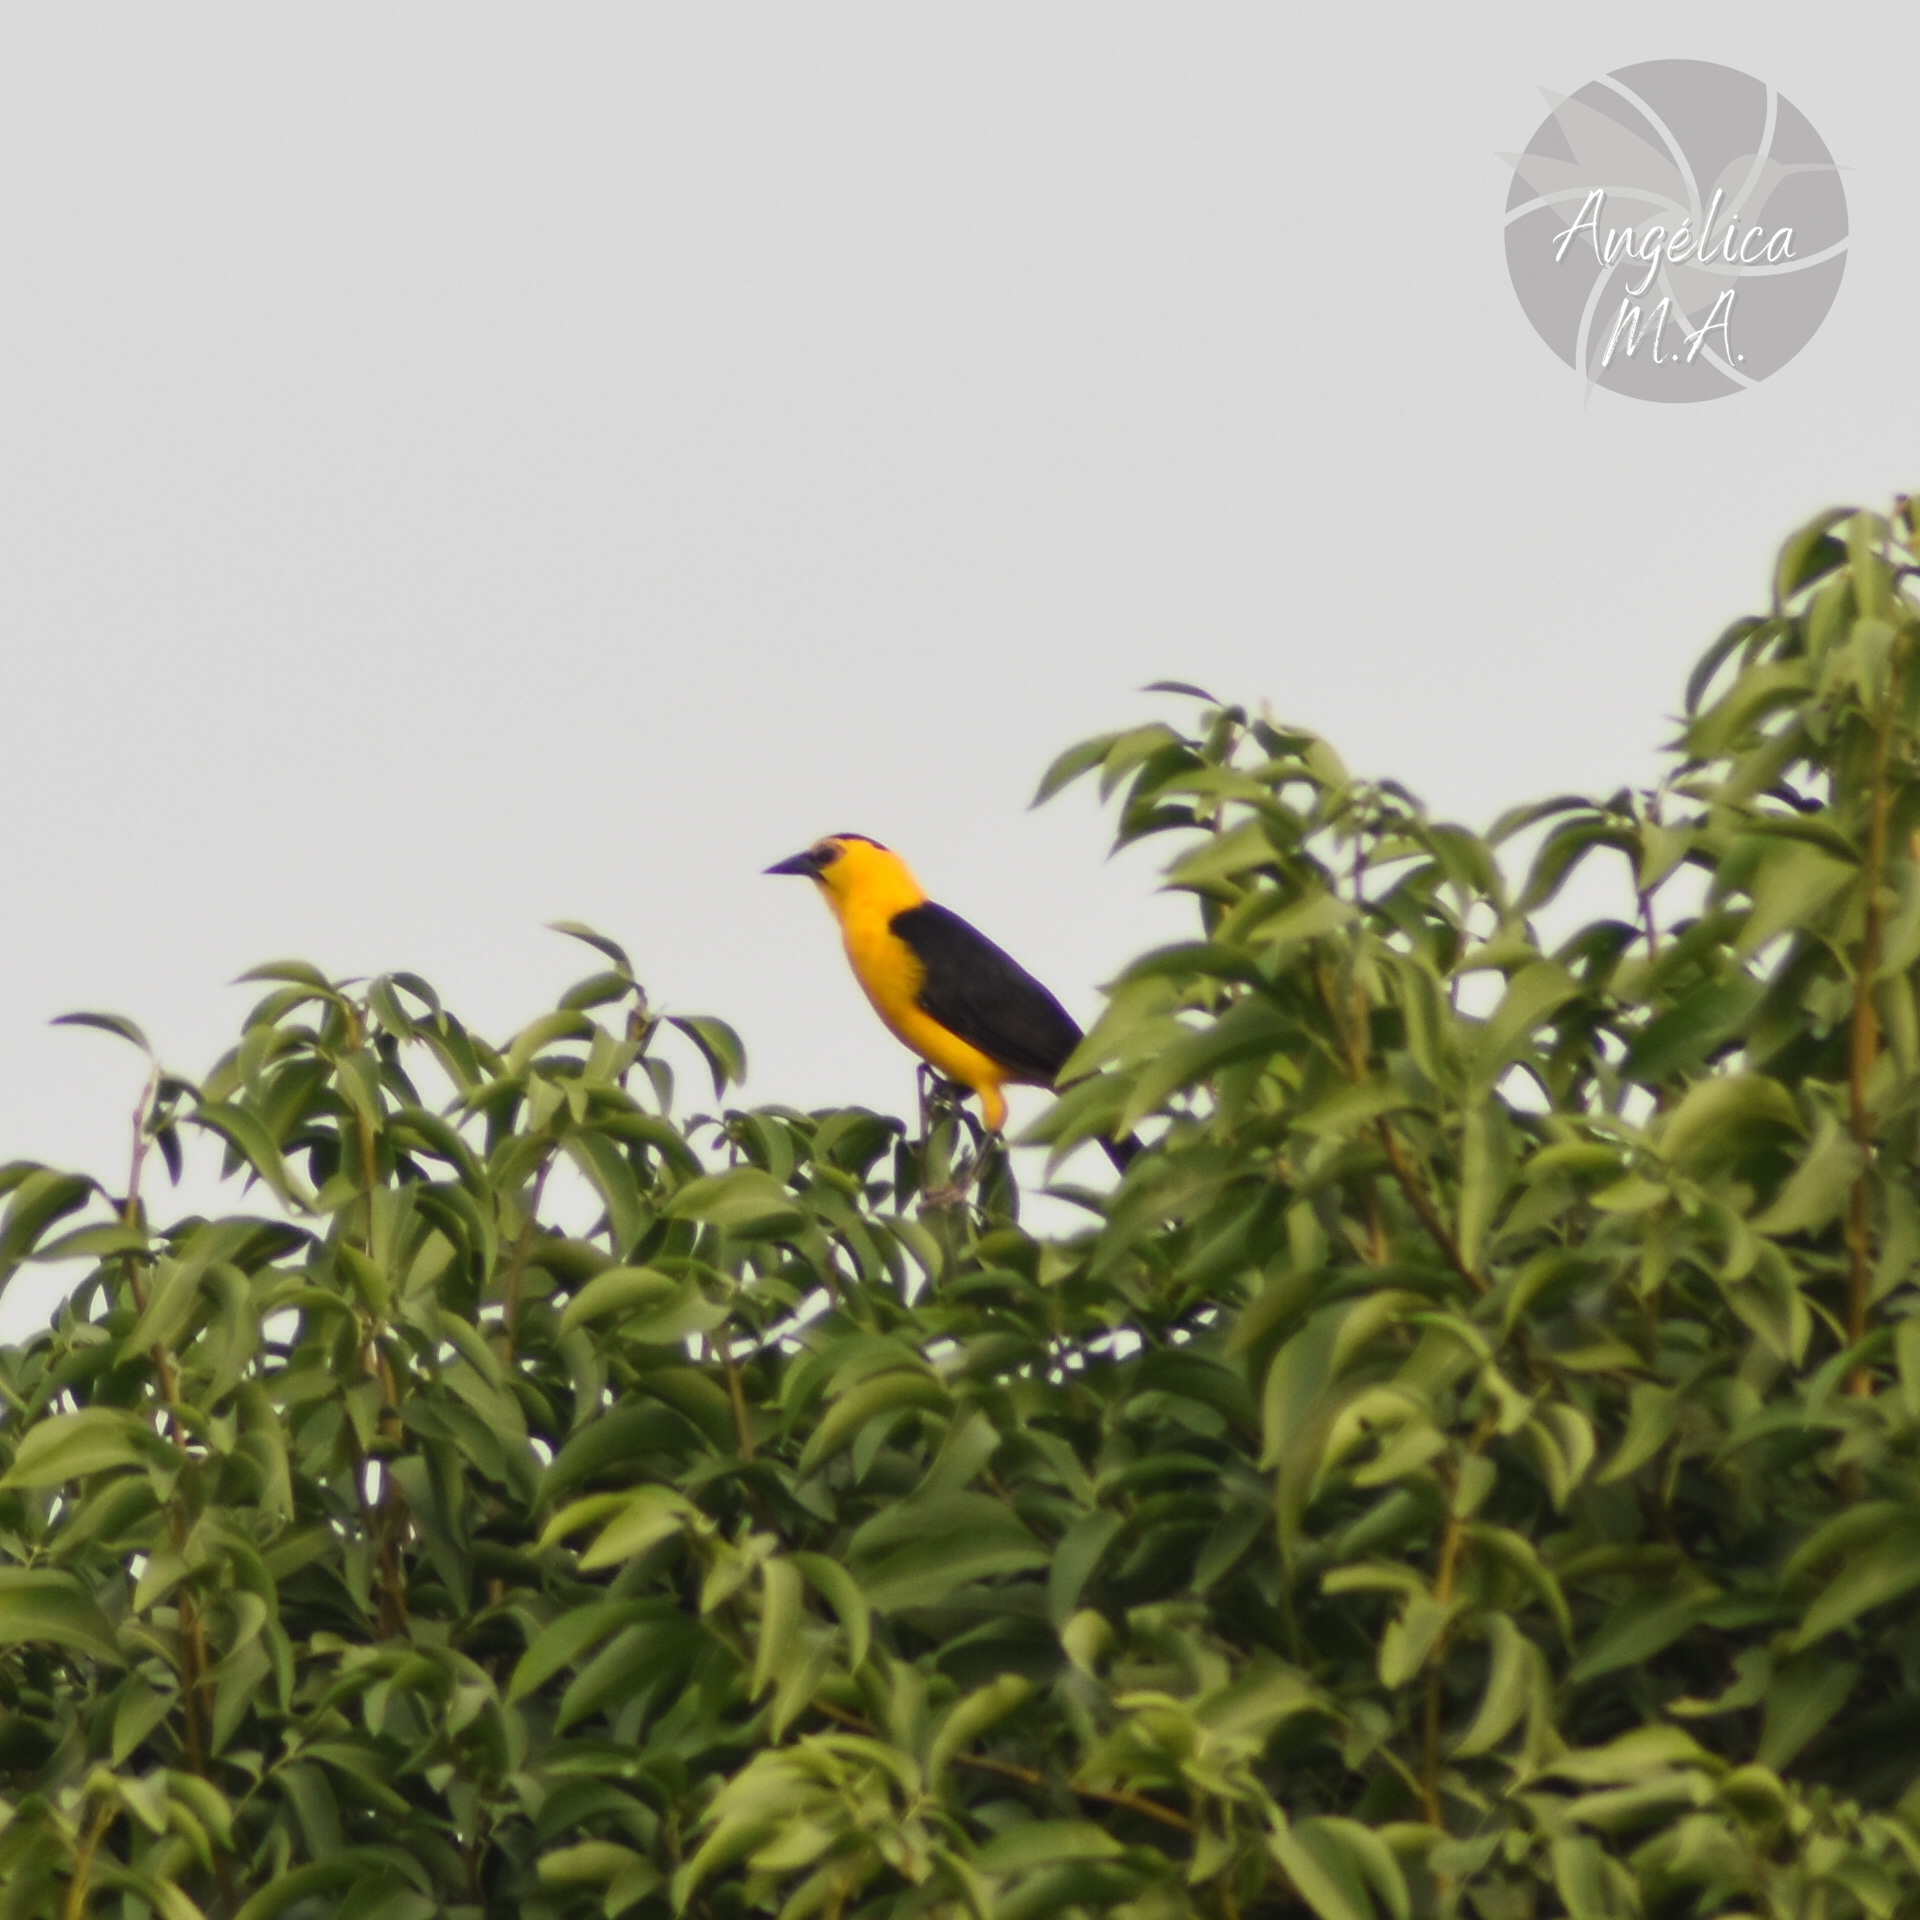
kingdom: Animalia
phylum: Chordata
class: Aves
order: Passeriformes
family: Icteridae
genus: Gymnomystax
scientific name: Gymnomystax mexicanus
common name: Oriole blackbird
